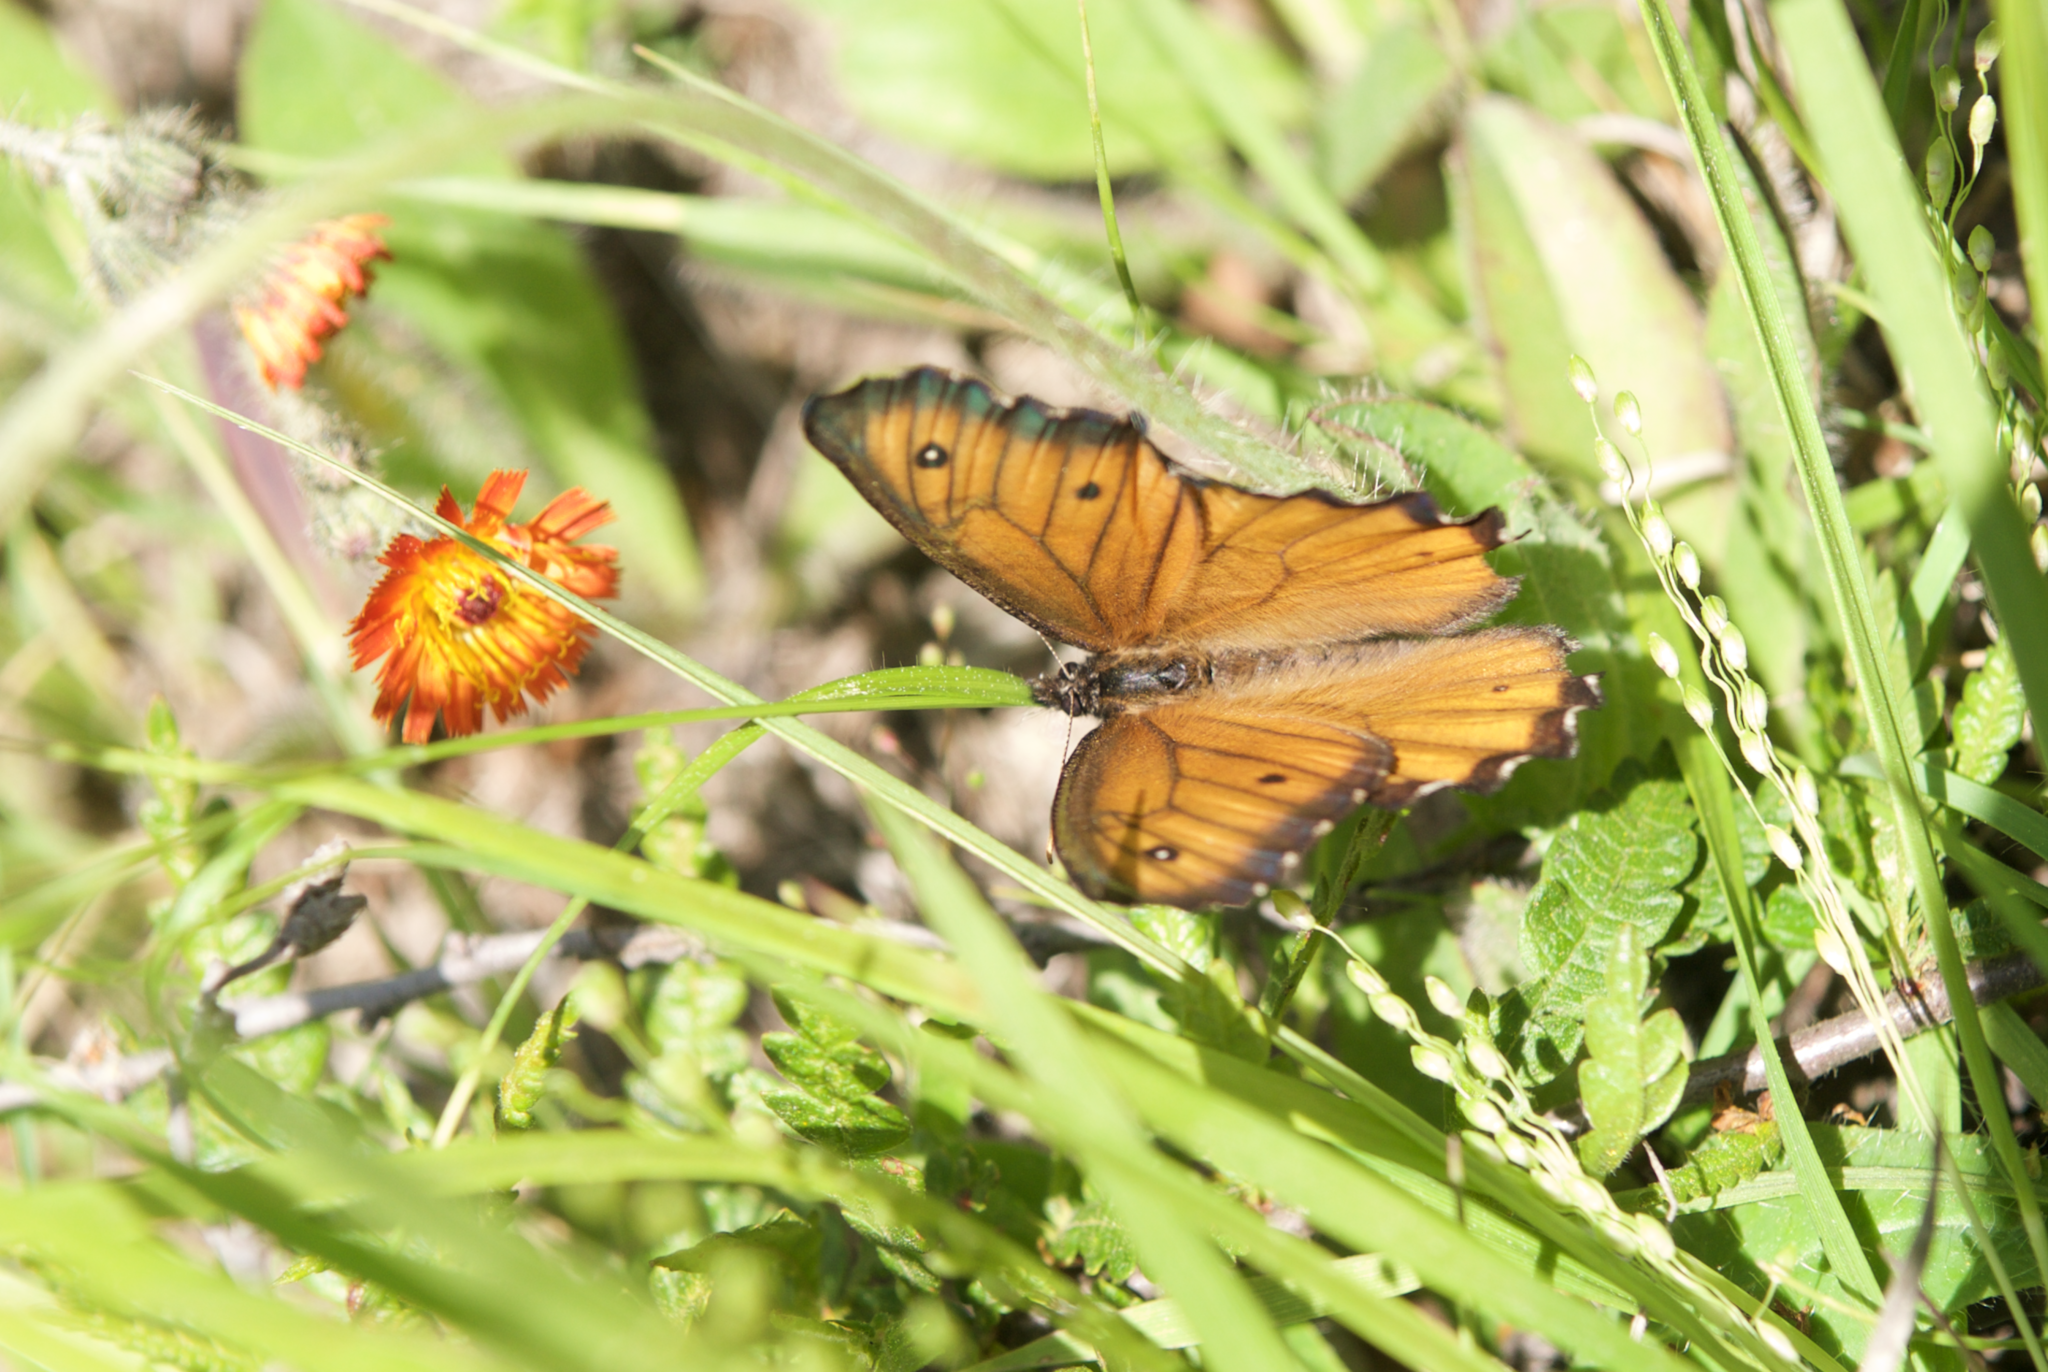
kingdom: Animalia
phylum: Arthropoda
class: Insecta
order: Lepidoptera
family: Nymphalidae
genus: Oeneis
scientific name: Oeneis macounii
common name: Macoun's arctic
